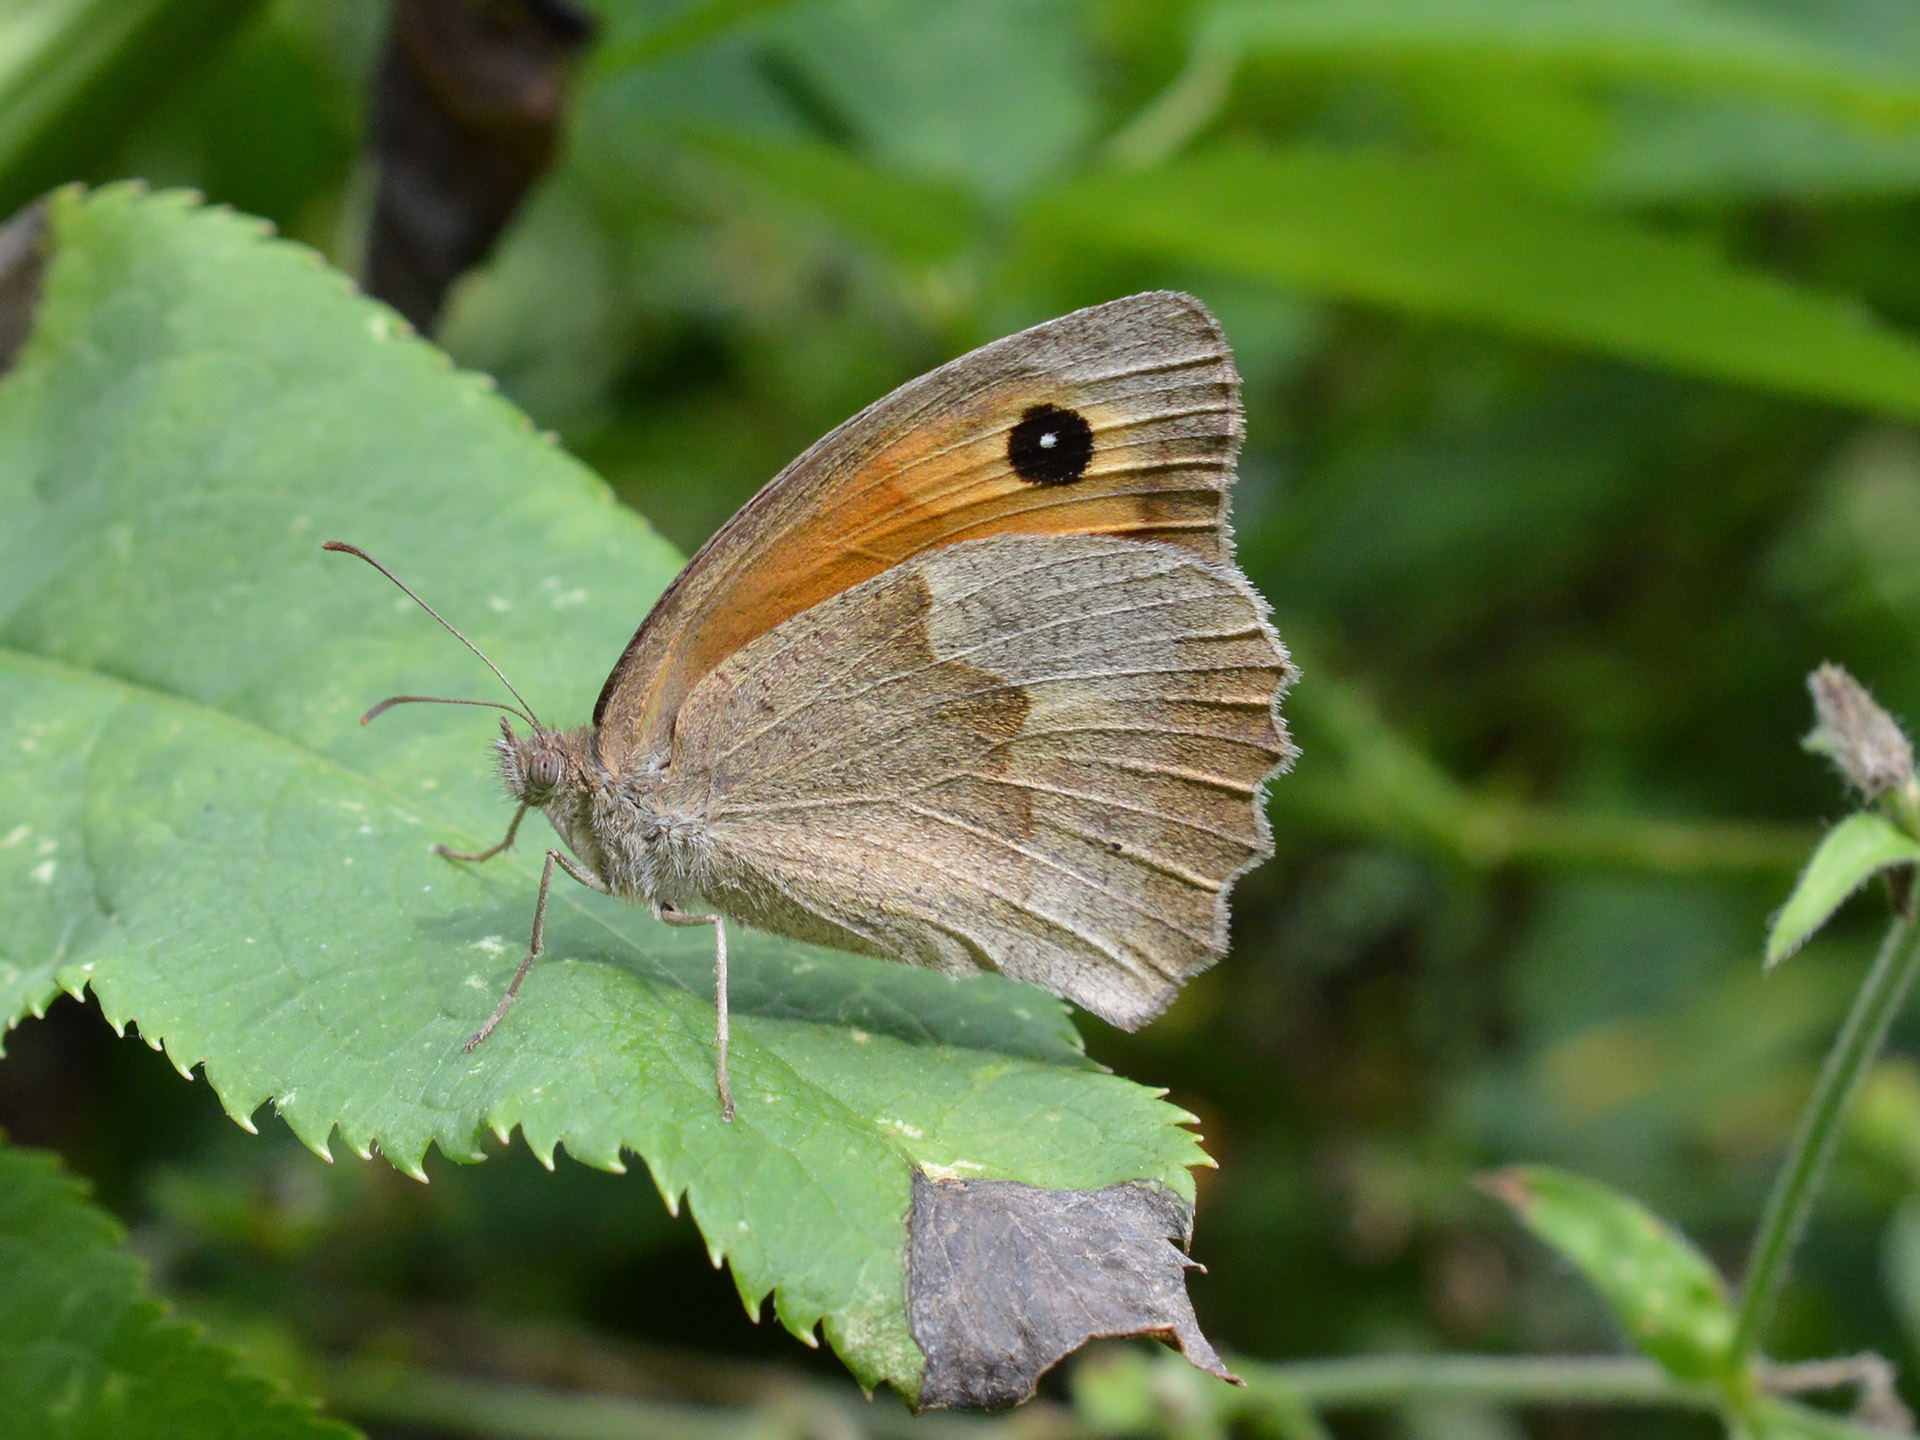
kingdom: Animalia
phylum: Arthropoda
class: Insecta
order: Lepidoptera
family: Nymphalidae
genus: Maniola
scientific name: Maniola jurtina
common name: Meadow brown
